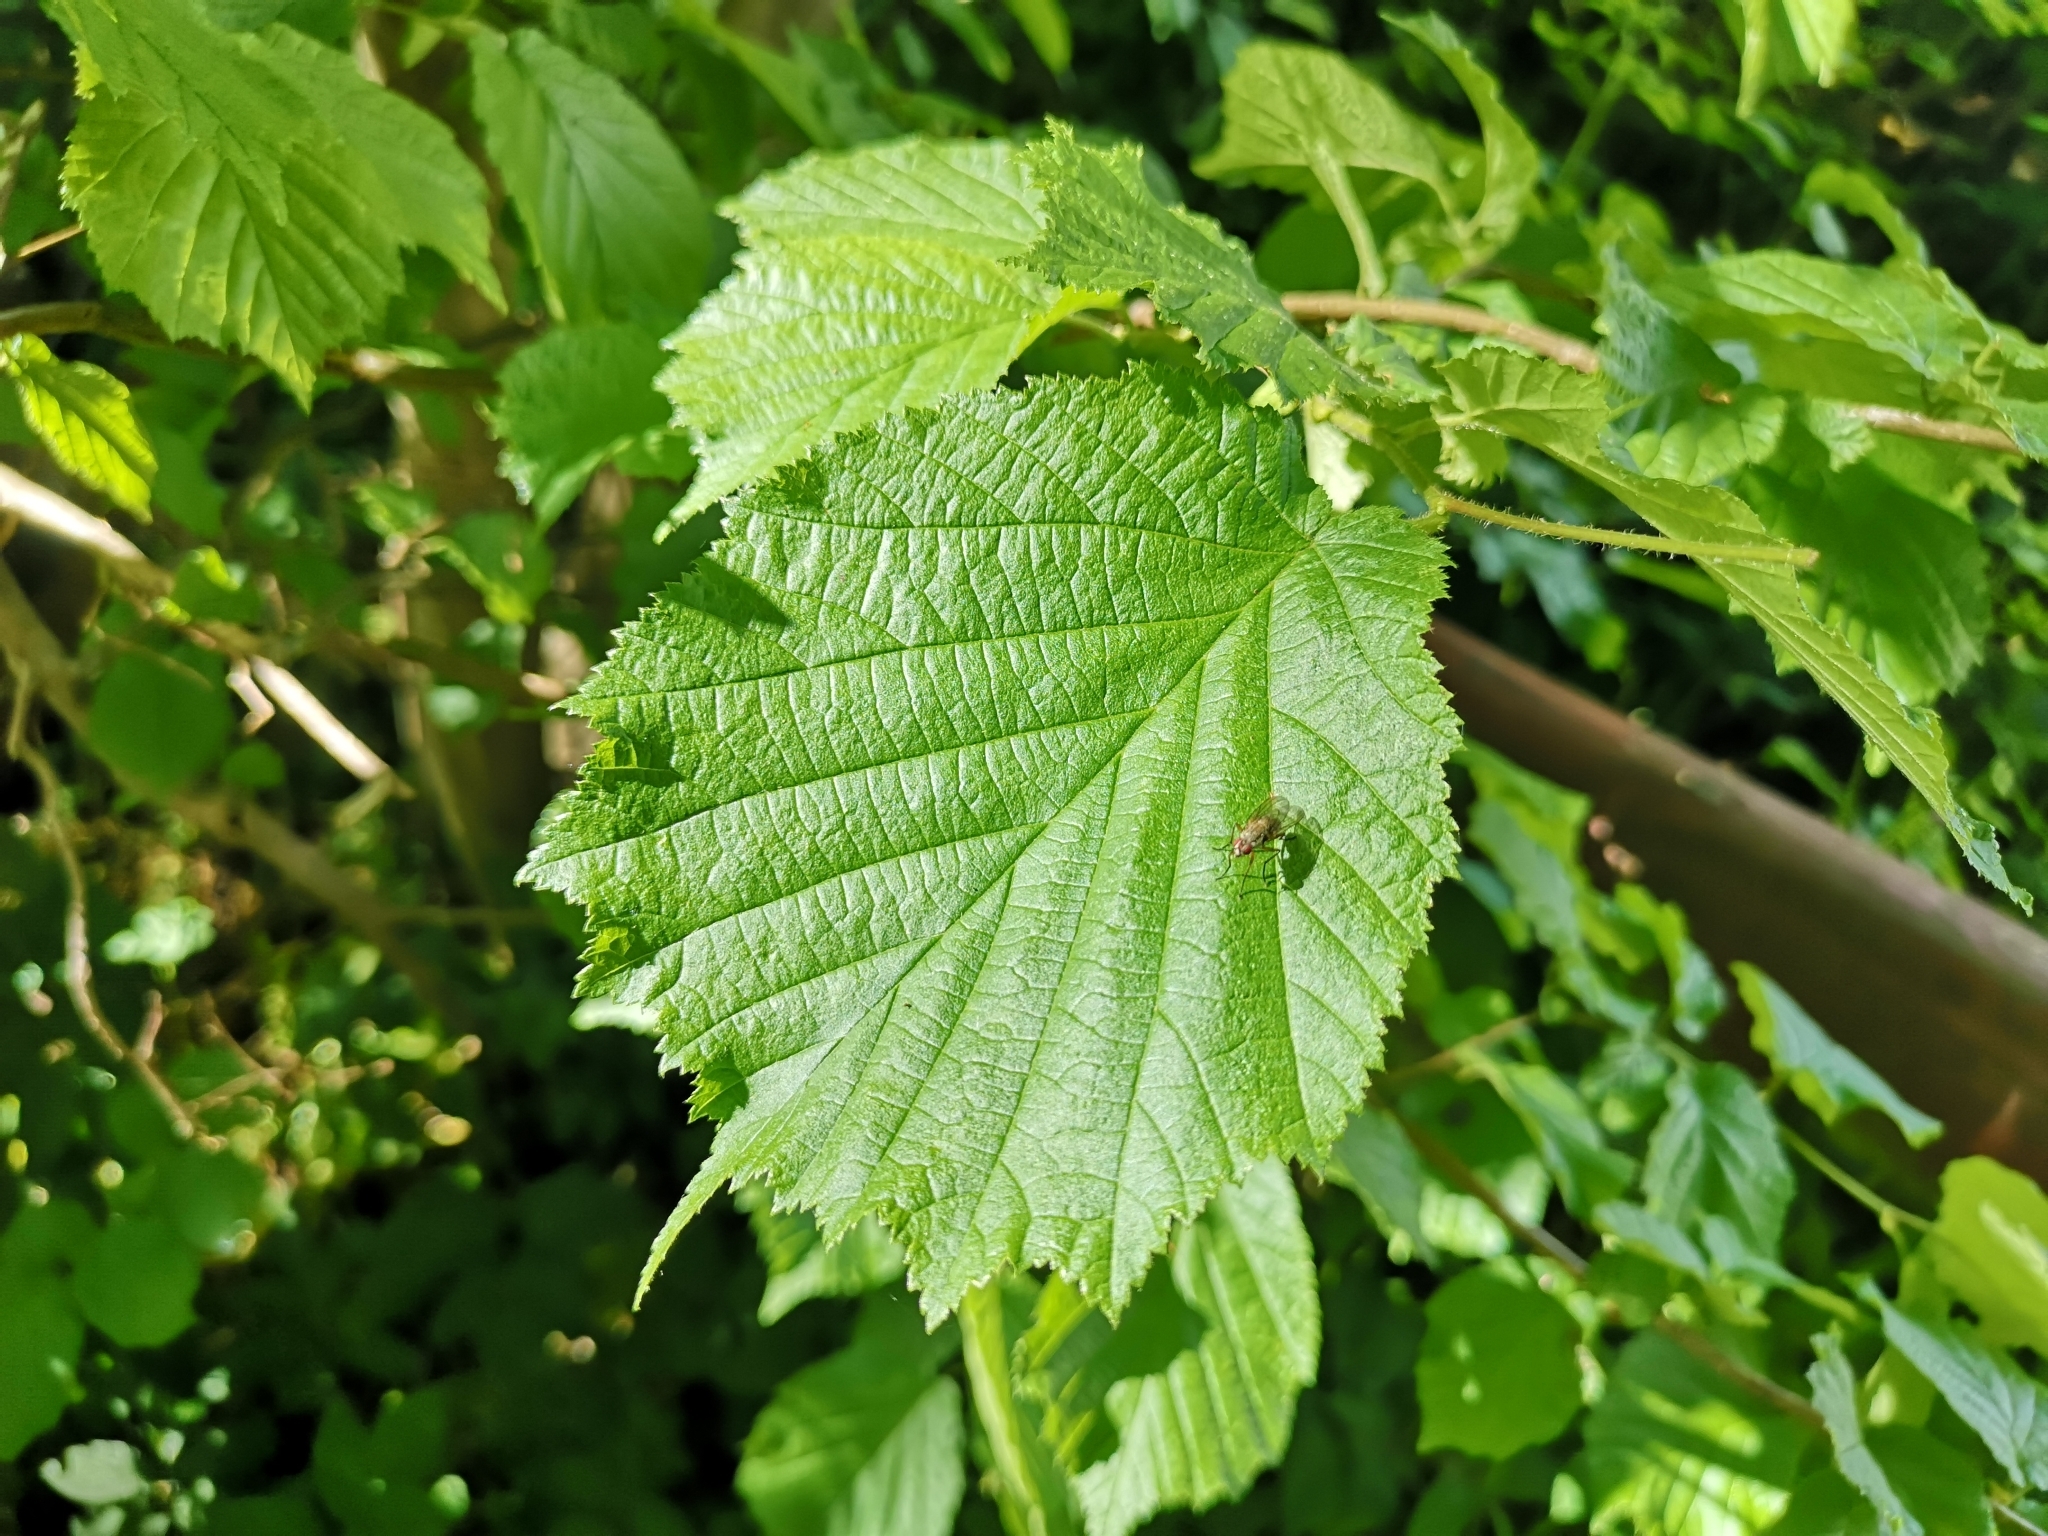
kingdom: Plantae
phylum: Tracheophyta
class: Magnoliopsida
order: Fagales
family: Betulaceae
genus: Corylus
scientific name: Corylus avellana
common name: European hazel
